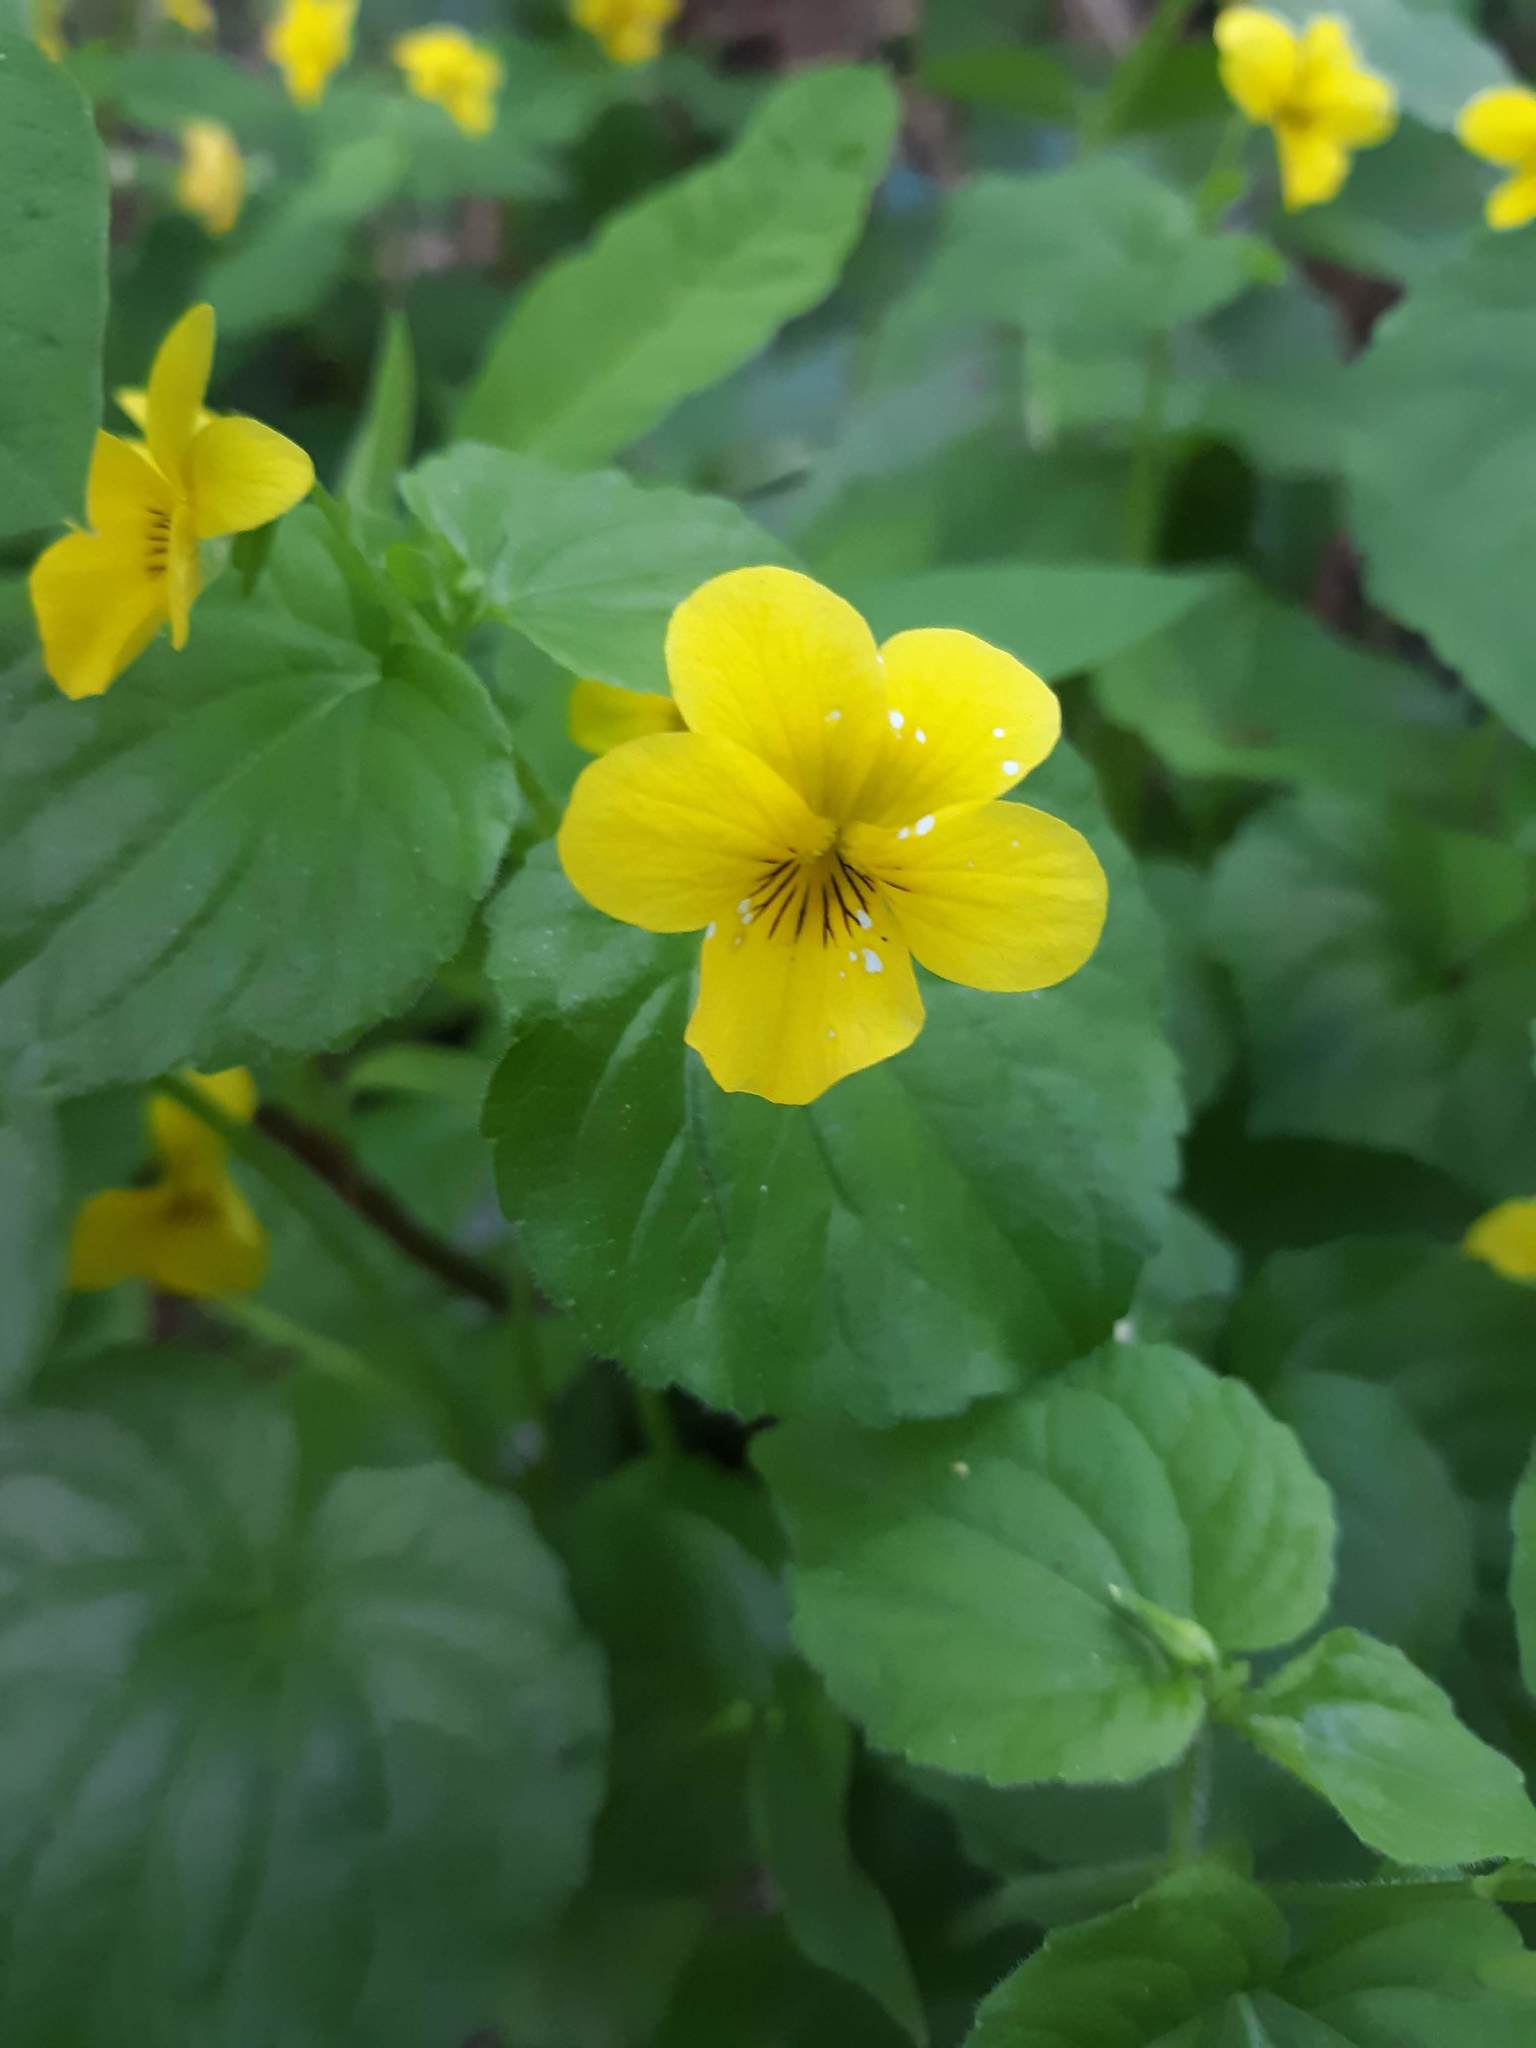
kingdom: Plantae
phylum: Tracheophyta
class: Magnoliopsida
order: Malpighiales
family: Violaceae
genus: Viola
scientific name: Viola glabella
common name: Stream violet
